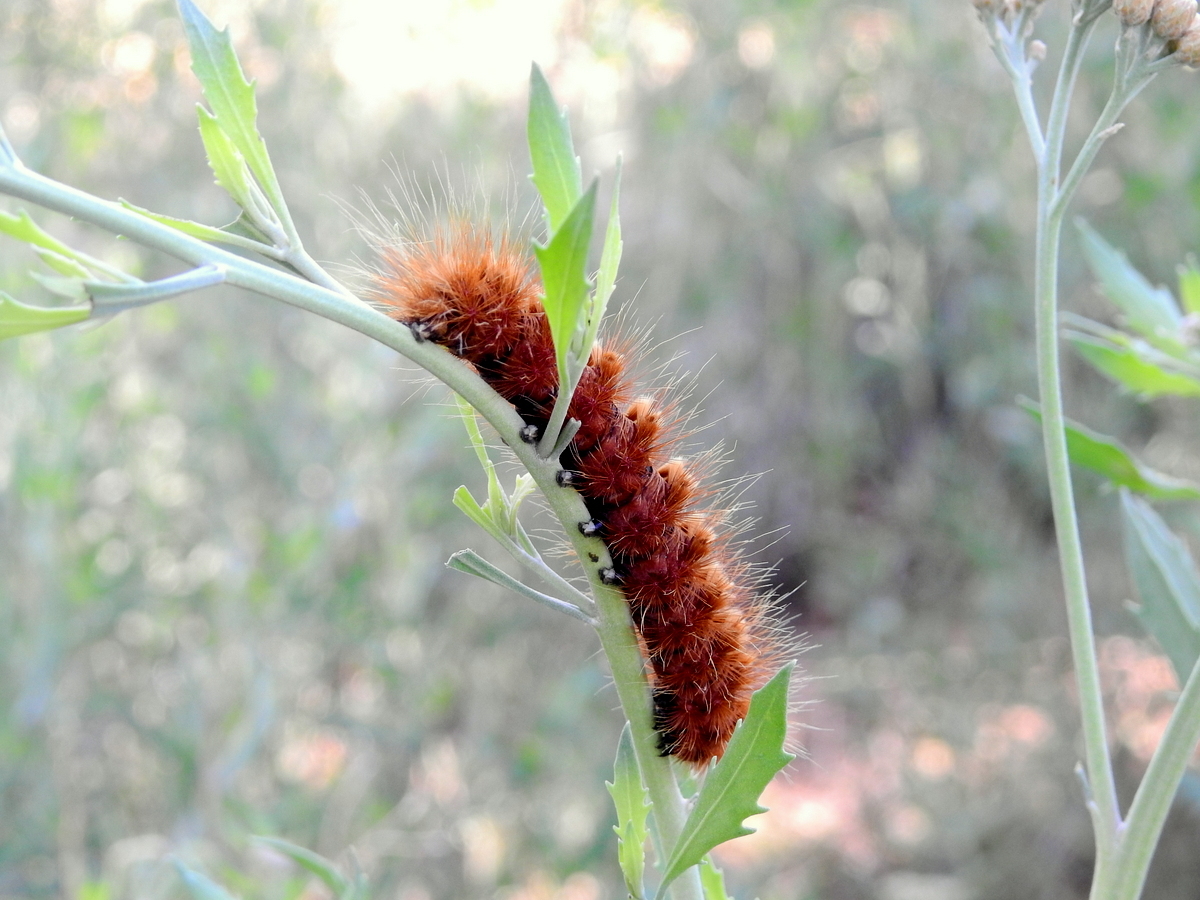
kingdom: Animalia
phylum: Arthropoda
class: Insecta
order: Lepidoptera
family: Erebidae
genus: Paracles
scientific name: Paracles severa
